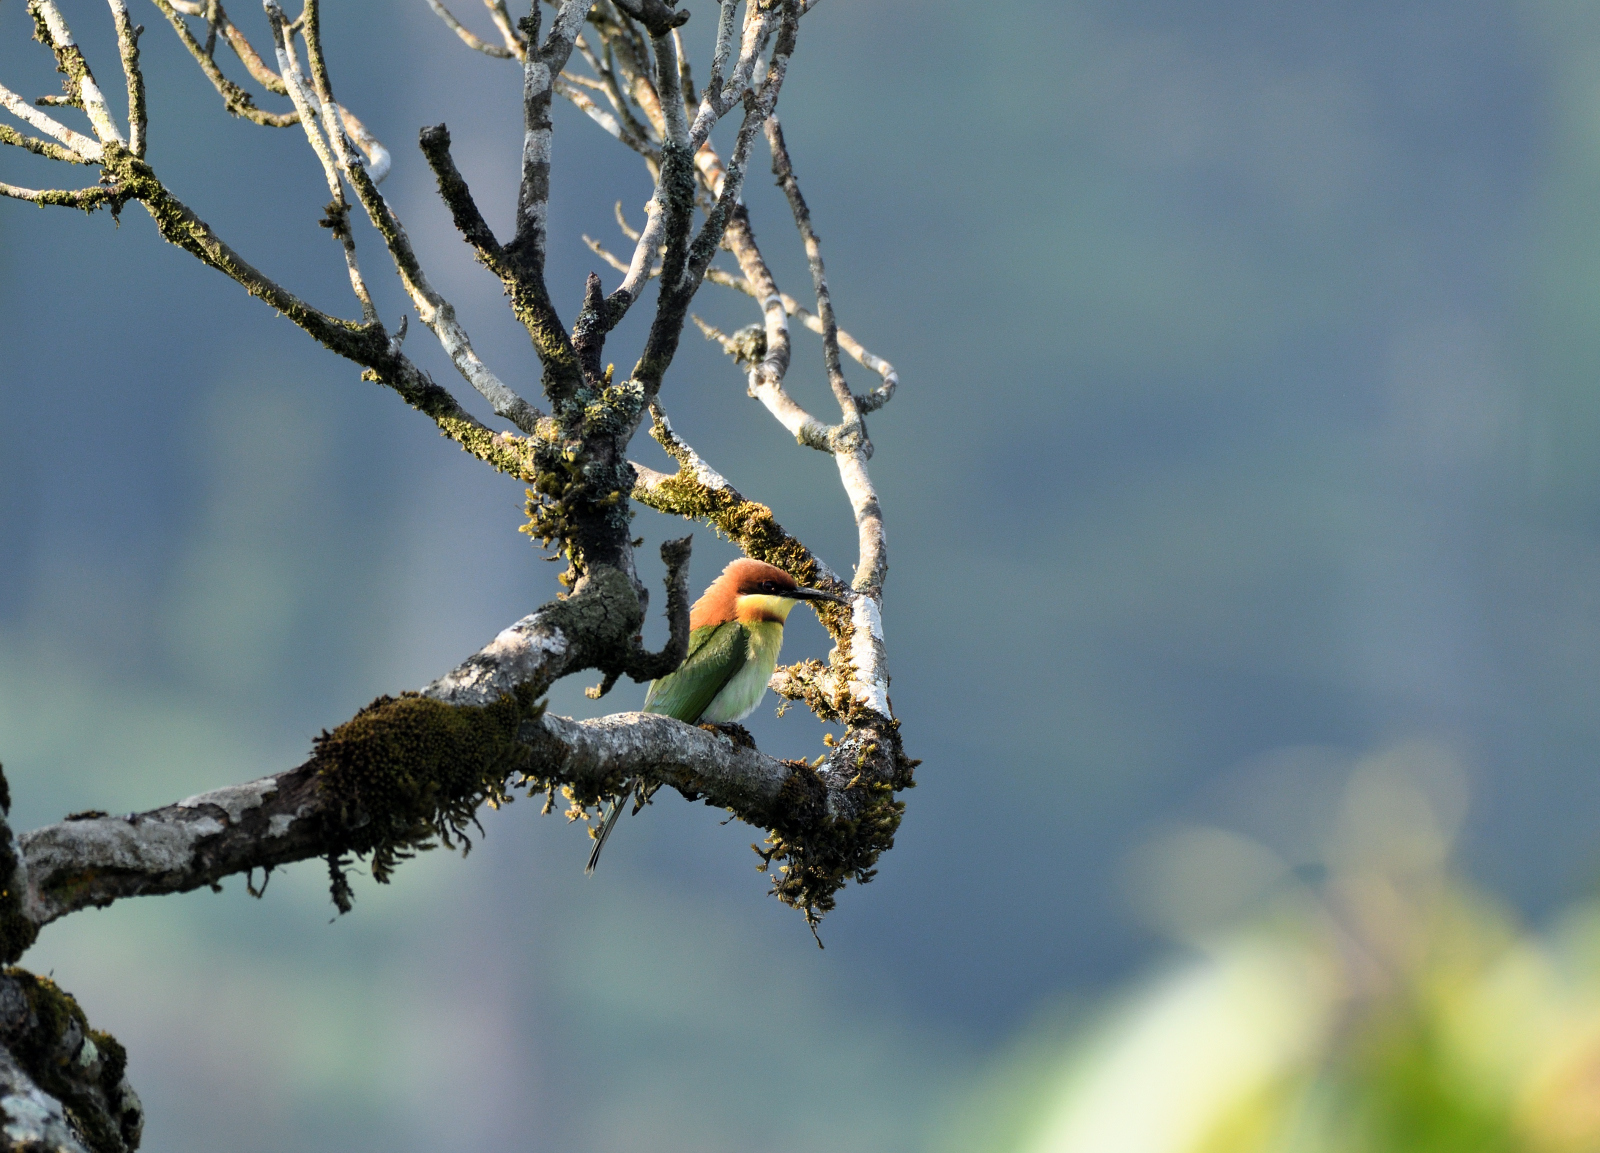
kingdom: Animalia
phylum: Chordata
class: Aves
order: Coraciiformes
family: Meropidae
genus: Merops
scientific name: Merops leschenaulti
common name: Chestnut-headed bee-eater
